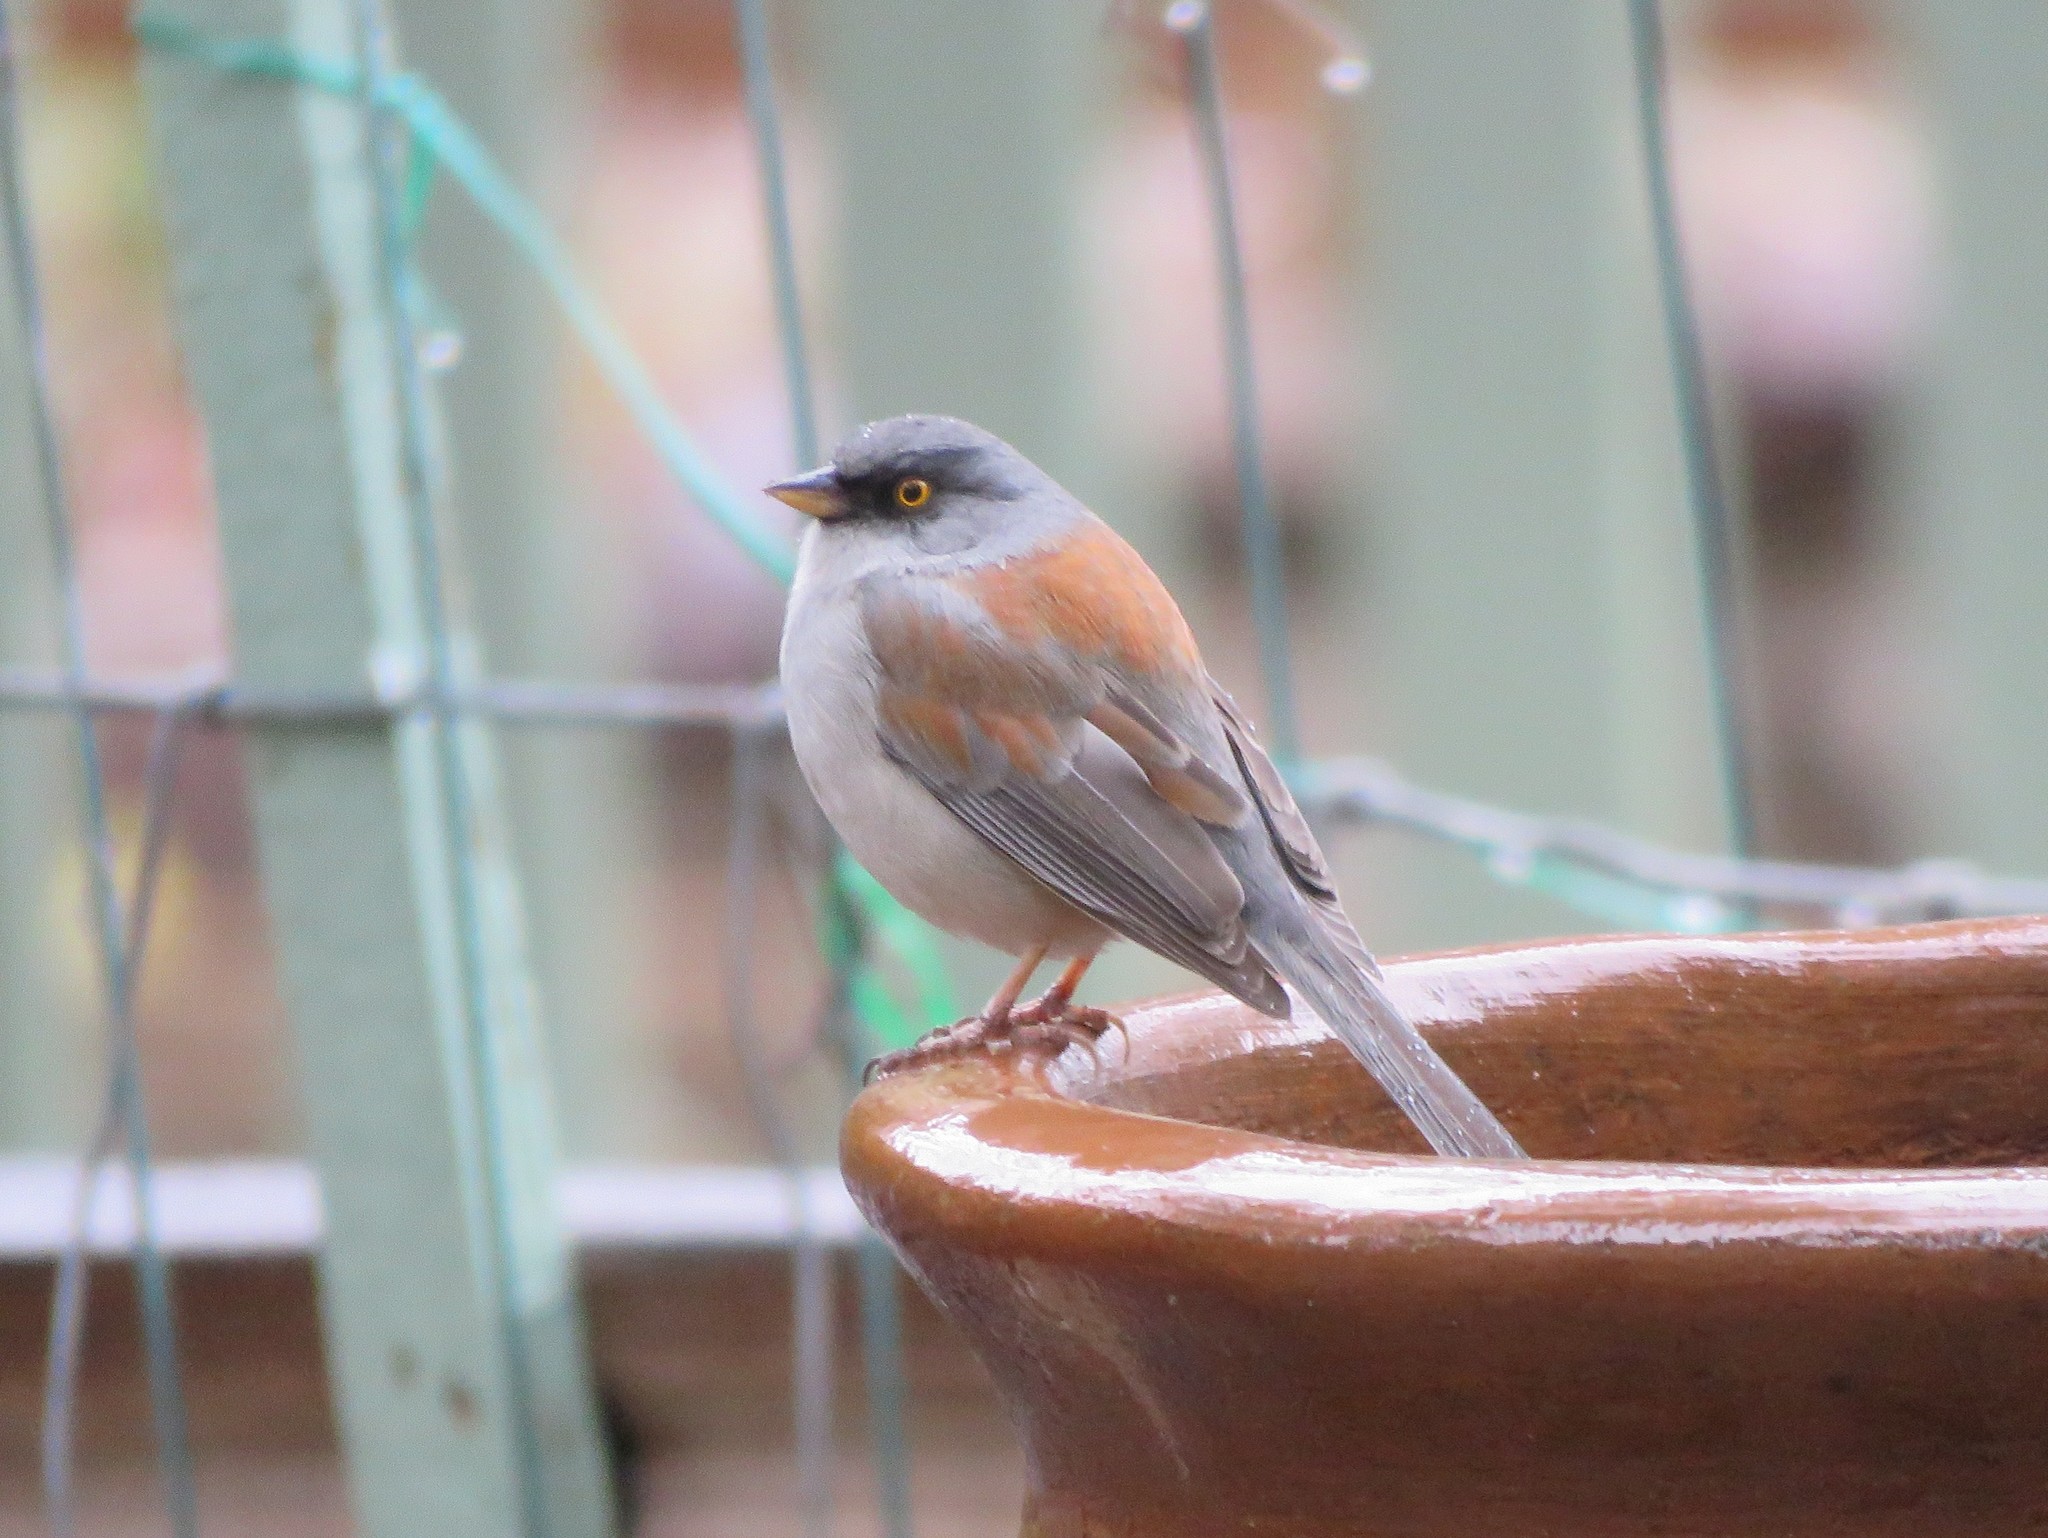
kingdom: Animalia
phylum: Chordata
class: Aves
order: Passeriformes
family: Passerellidae
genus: Junco
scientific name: Junco phaeonotus
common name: Yellow-eyed junco
